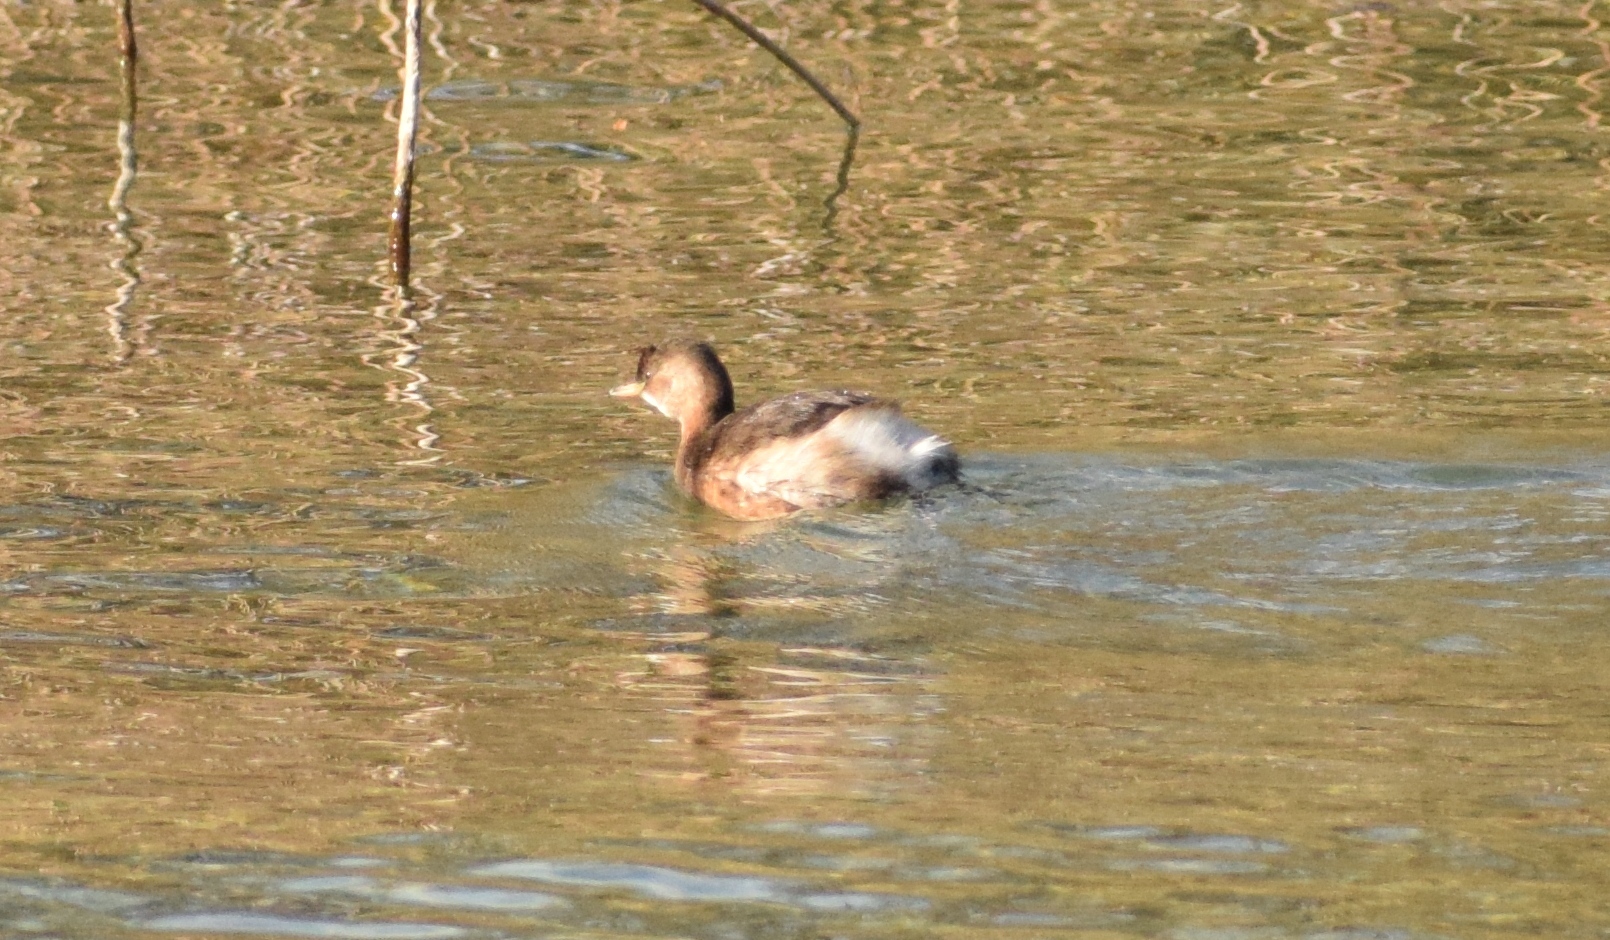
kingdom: Animalia
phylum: Chordata
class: Aves
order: Podicipediformes
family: Podicipedidae
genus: Tachybaptus
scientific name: Tachybaptus ruficollis
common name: Little grebe
